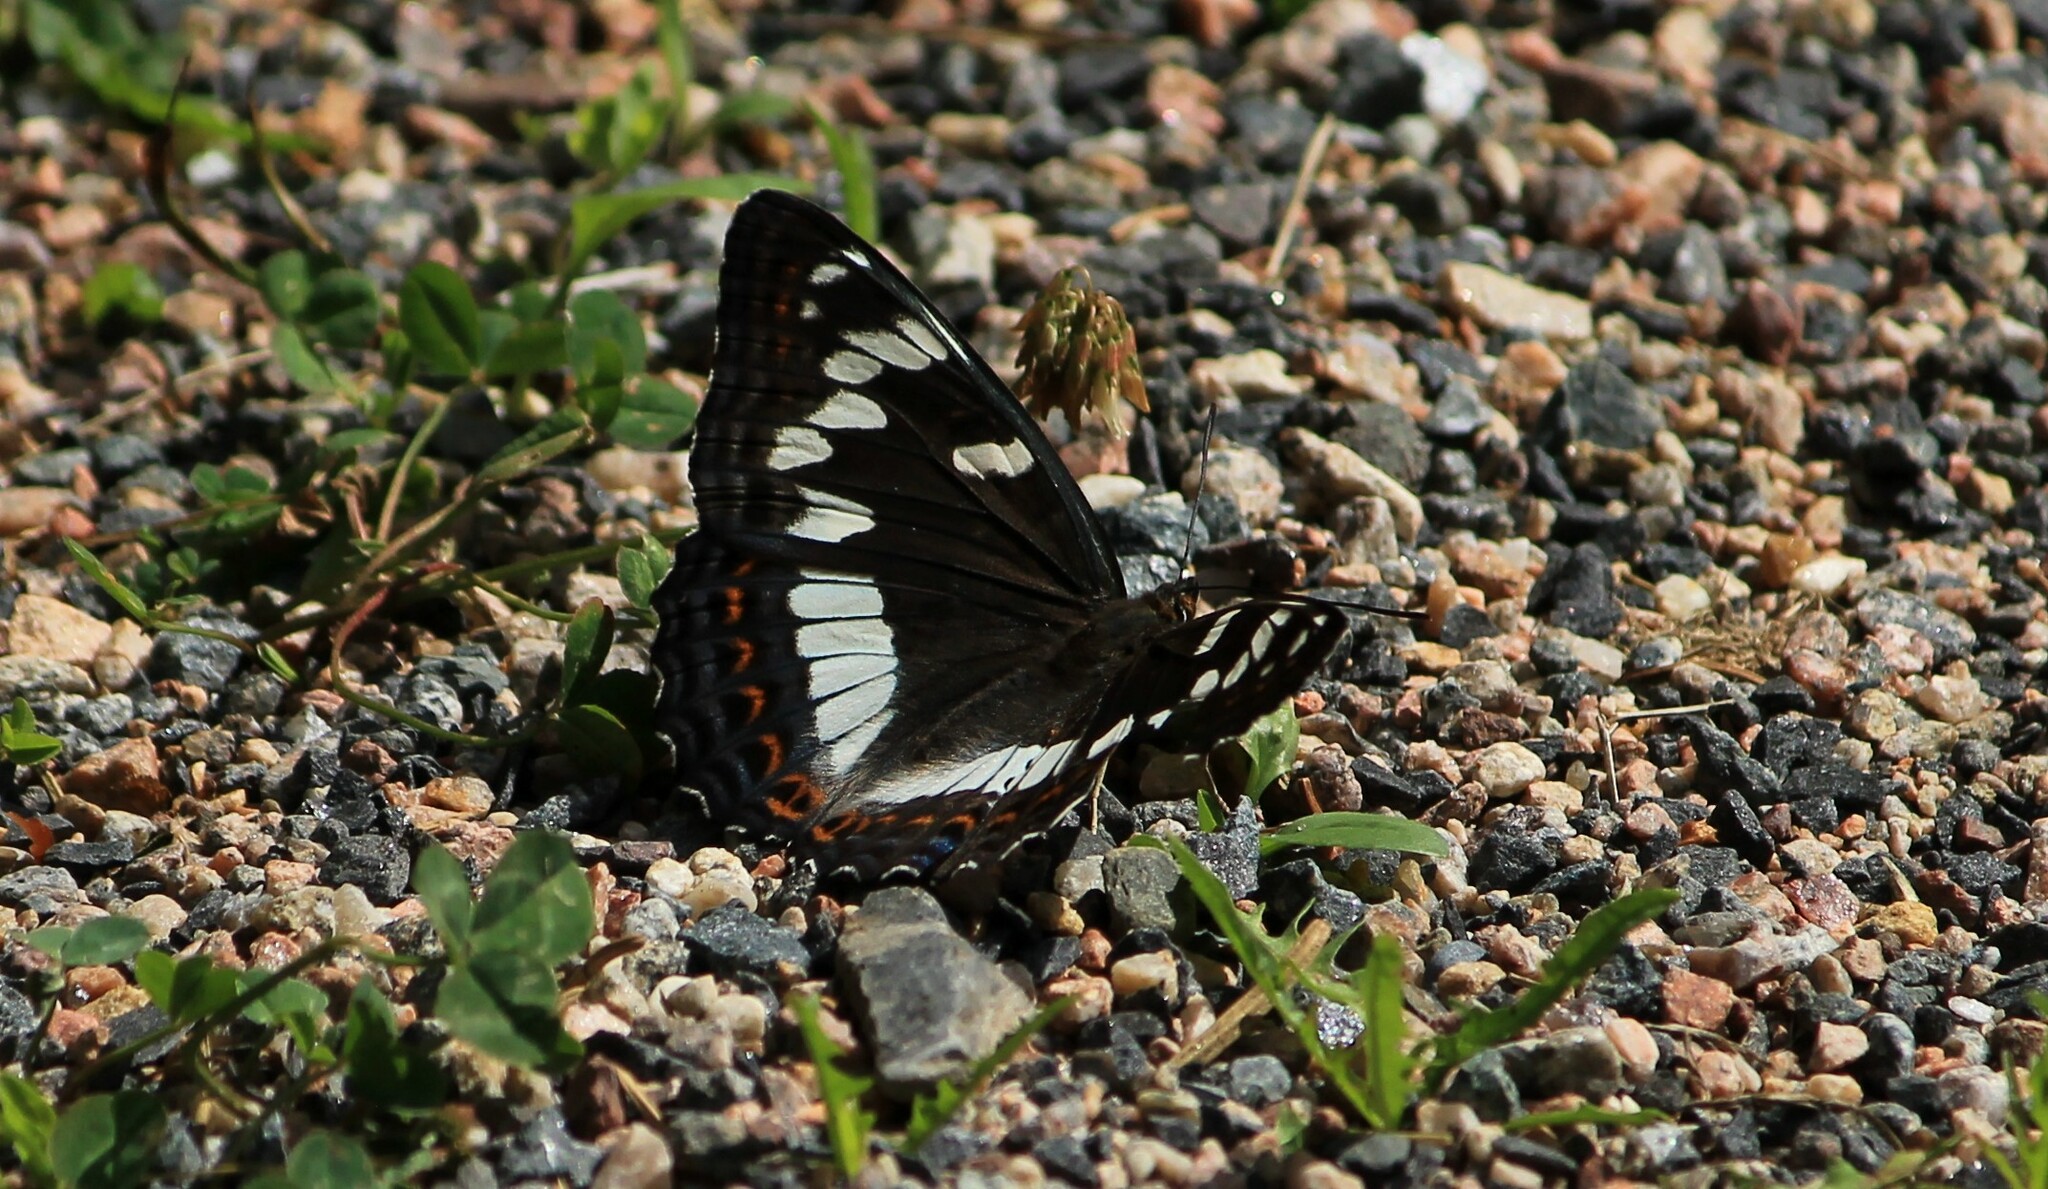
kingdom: Animalia
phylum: Arthropoda
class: Insecta
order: Lepidoptera
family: Nymphalidae
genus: Limenitis
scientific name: Limenitis populi
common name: Poplar admiral
